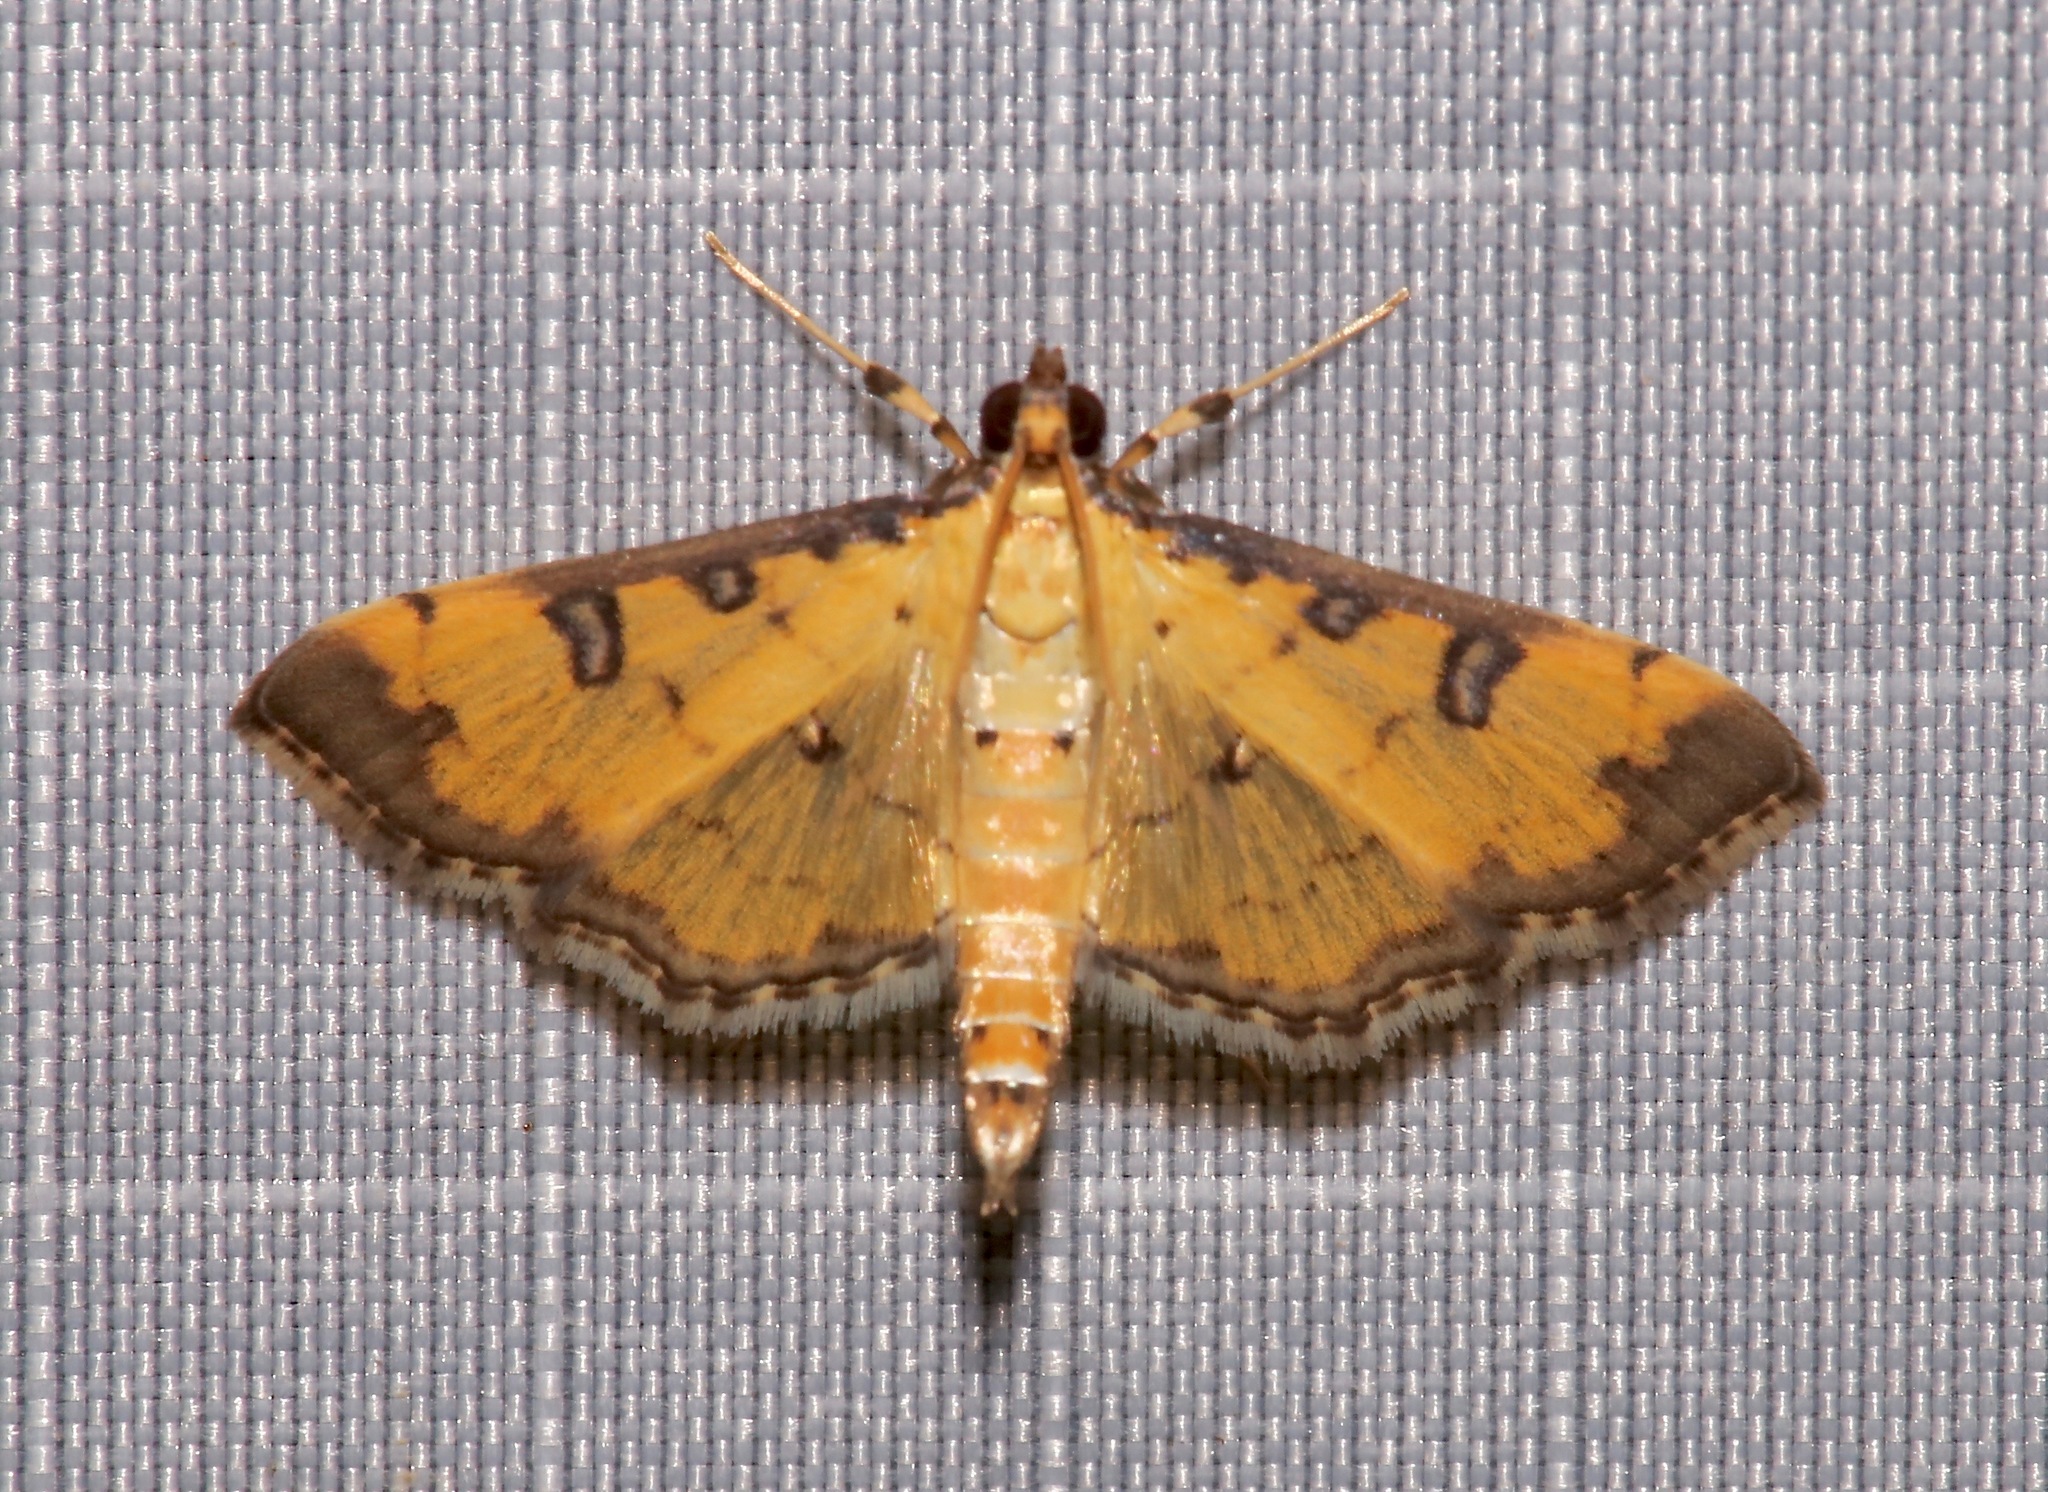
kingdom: Animalia
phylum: Arthropoda
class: Insecta
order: Lepidoptera
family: Crambidae
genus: Ategumia
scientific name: Ategumia ebulealis
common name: Moth
